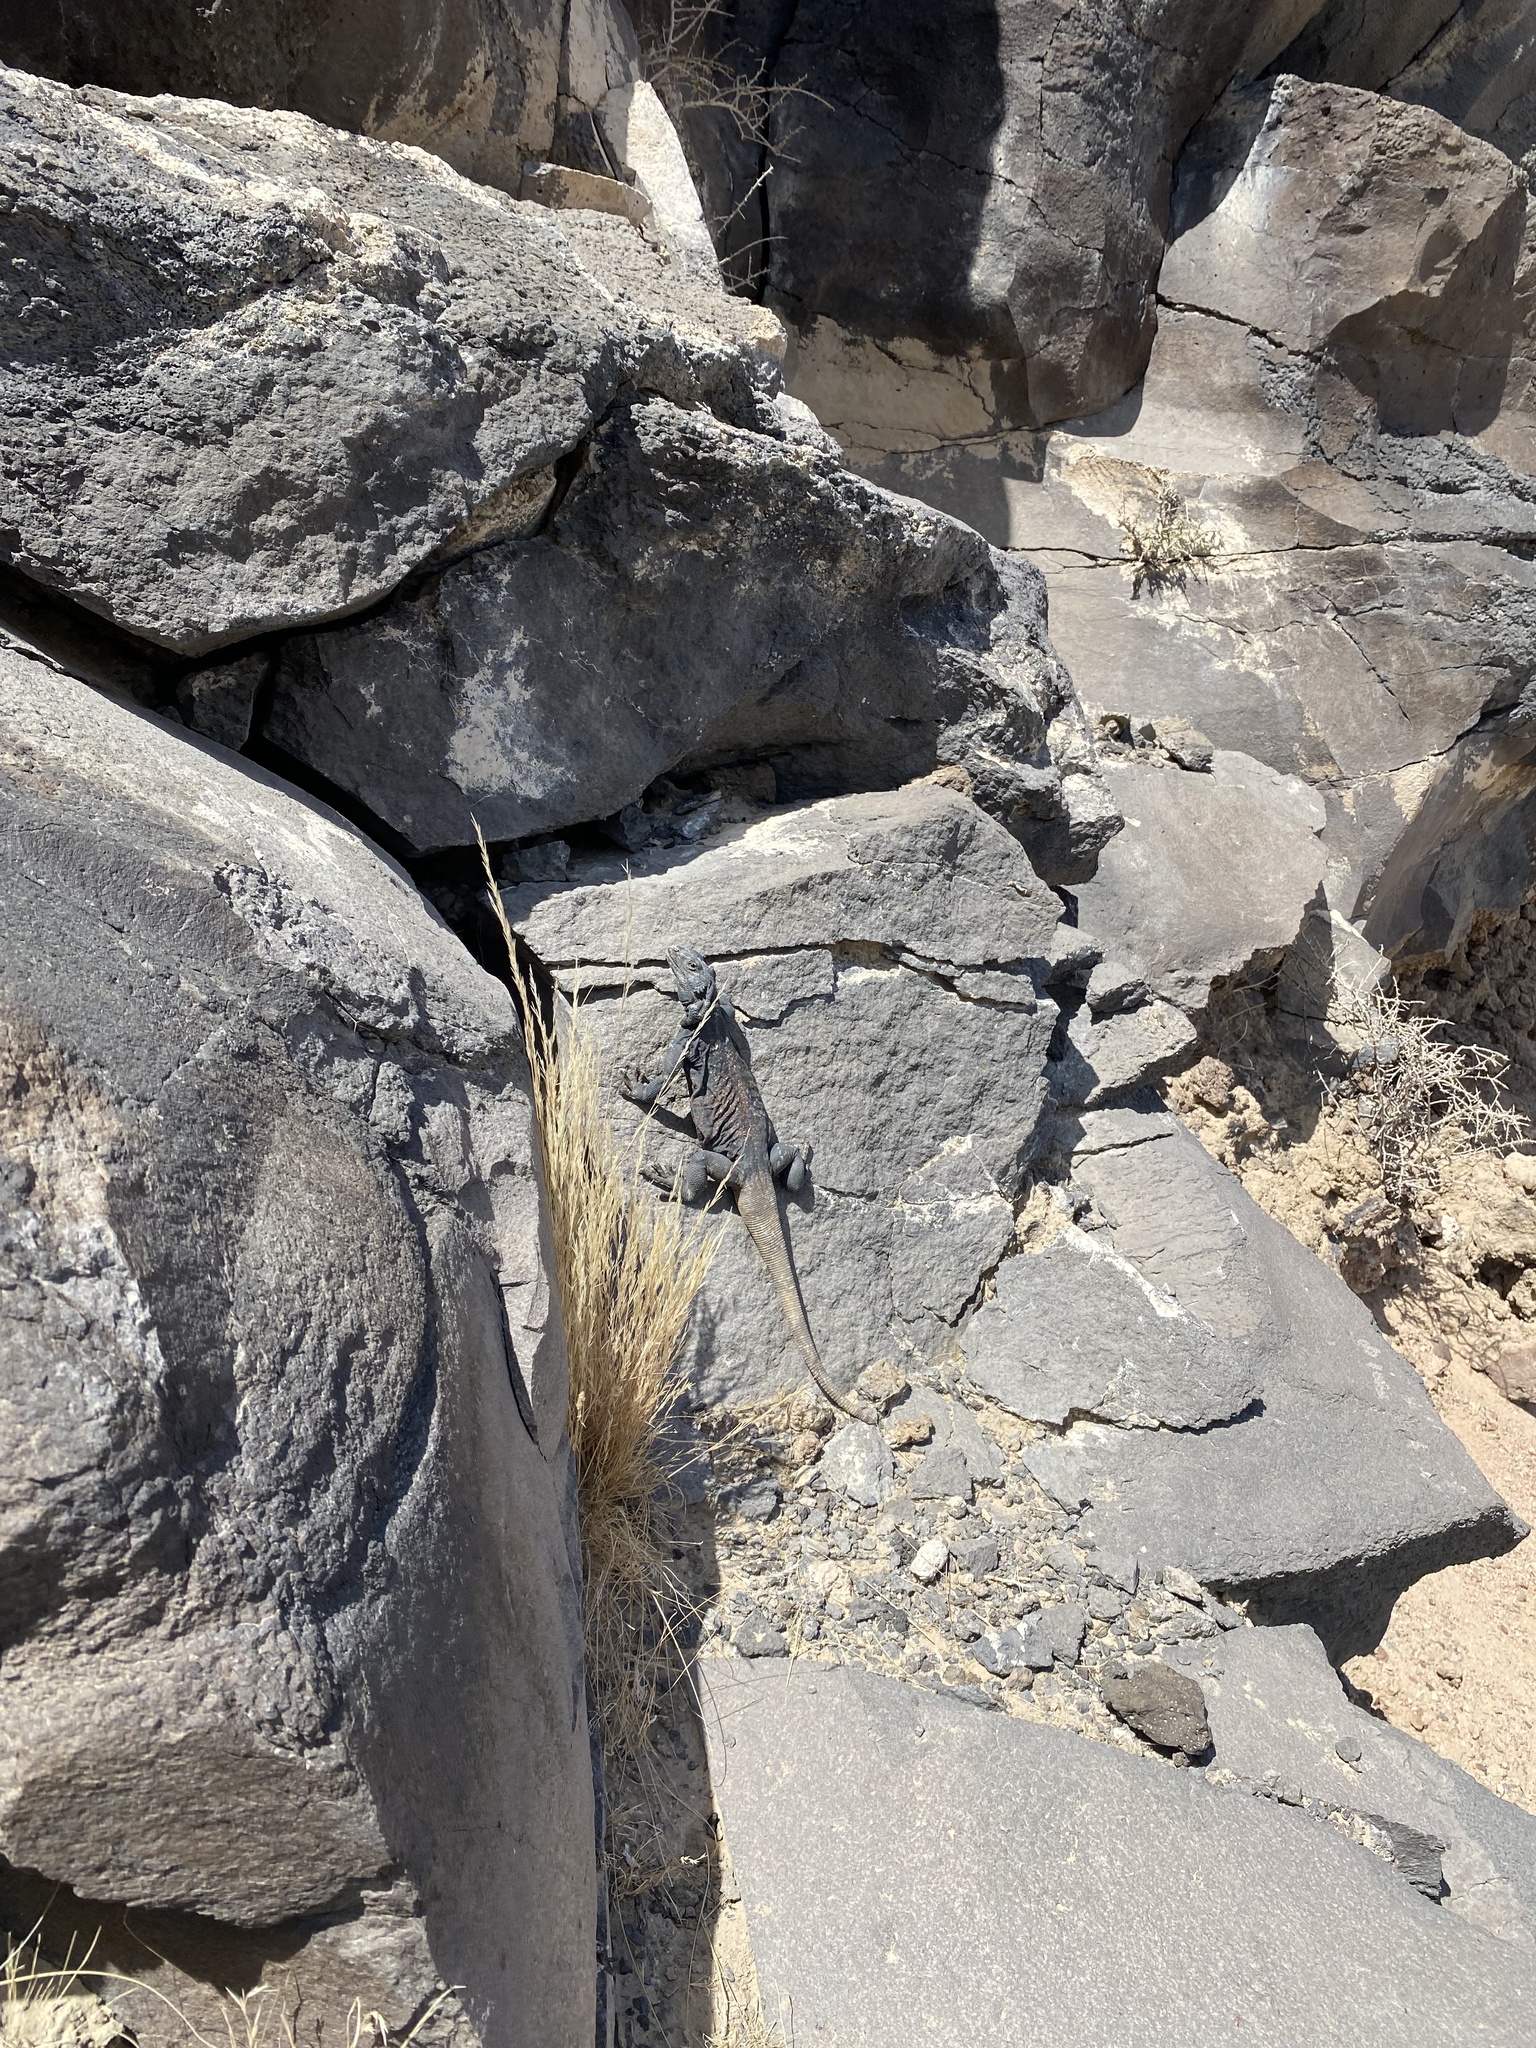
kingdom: Animalia
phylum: Chordata
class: Squamata
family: Iguanidae
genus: Sauromalus
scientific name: Sauromalus ater
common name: Northern chuckwalla
